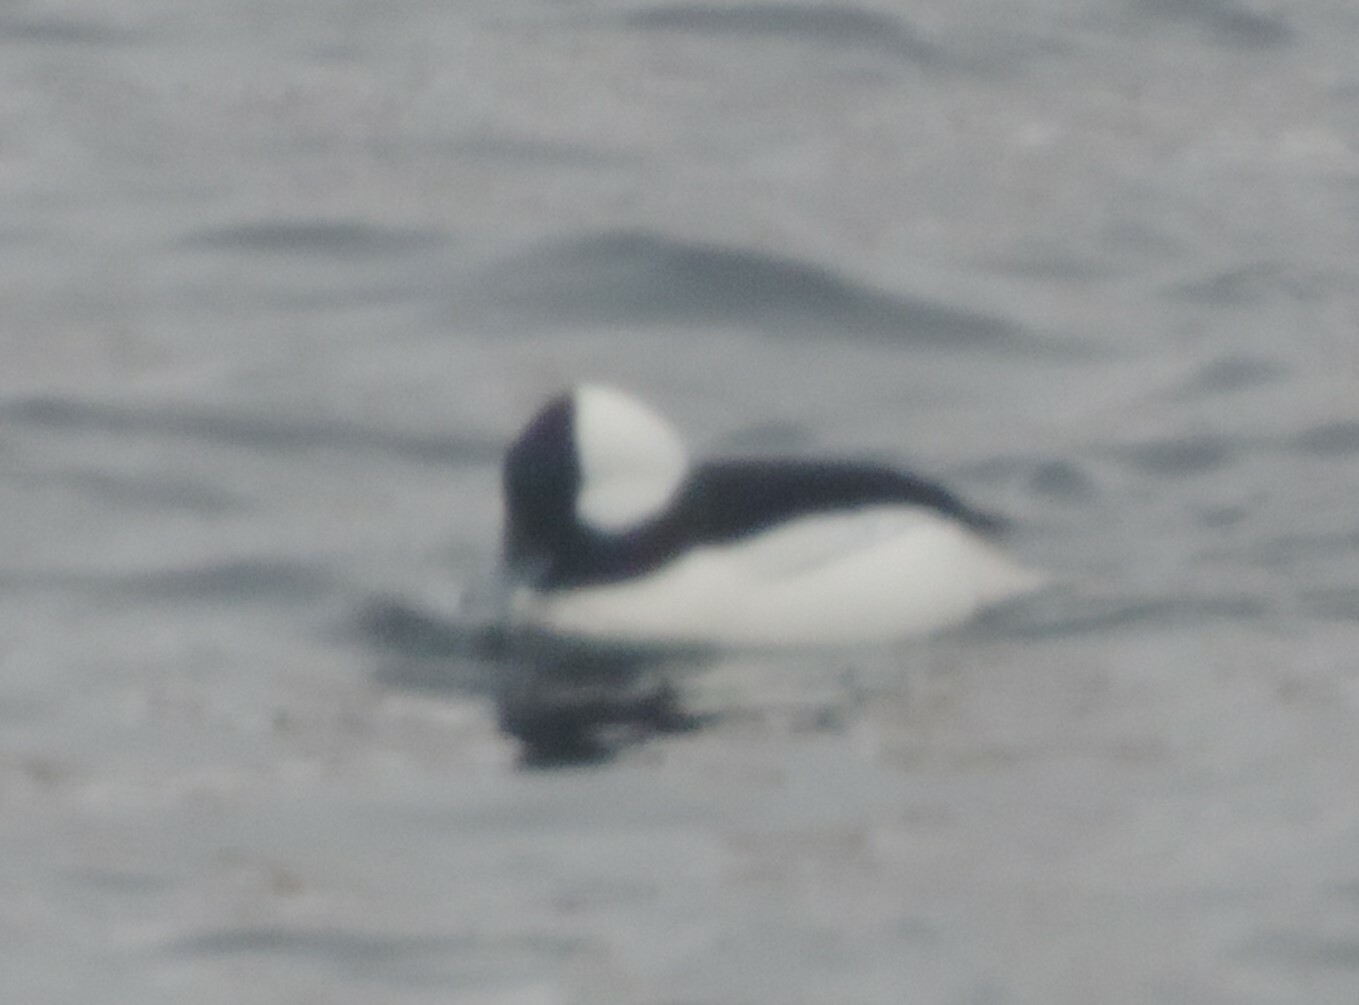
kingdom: Animalia
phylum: Chordata
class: Aves
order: Anseriformes
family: Anatidae
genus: Bucephala
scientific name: Bucephala albeola
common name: Bufflehead
